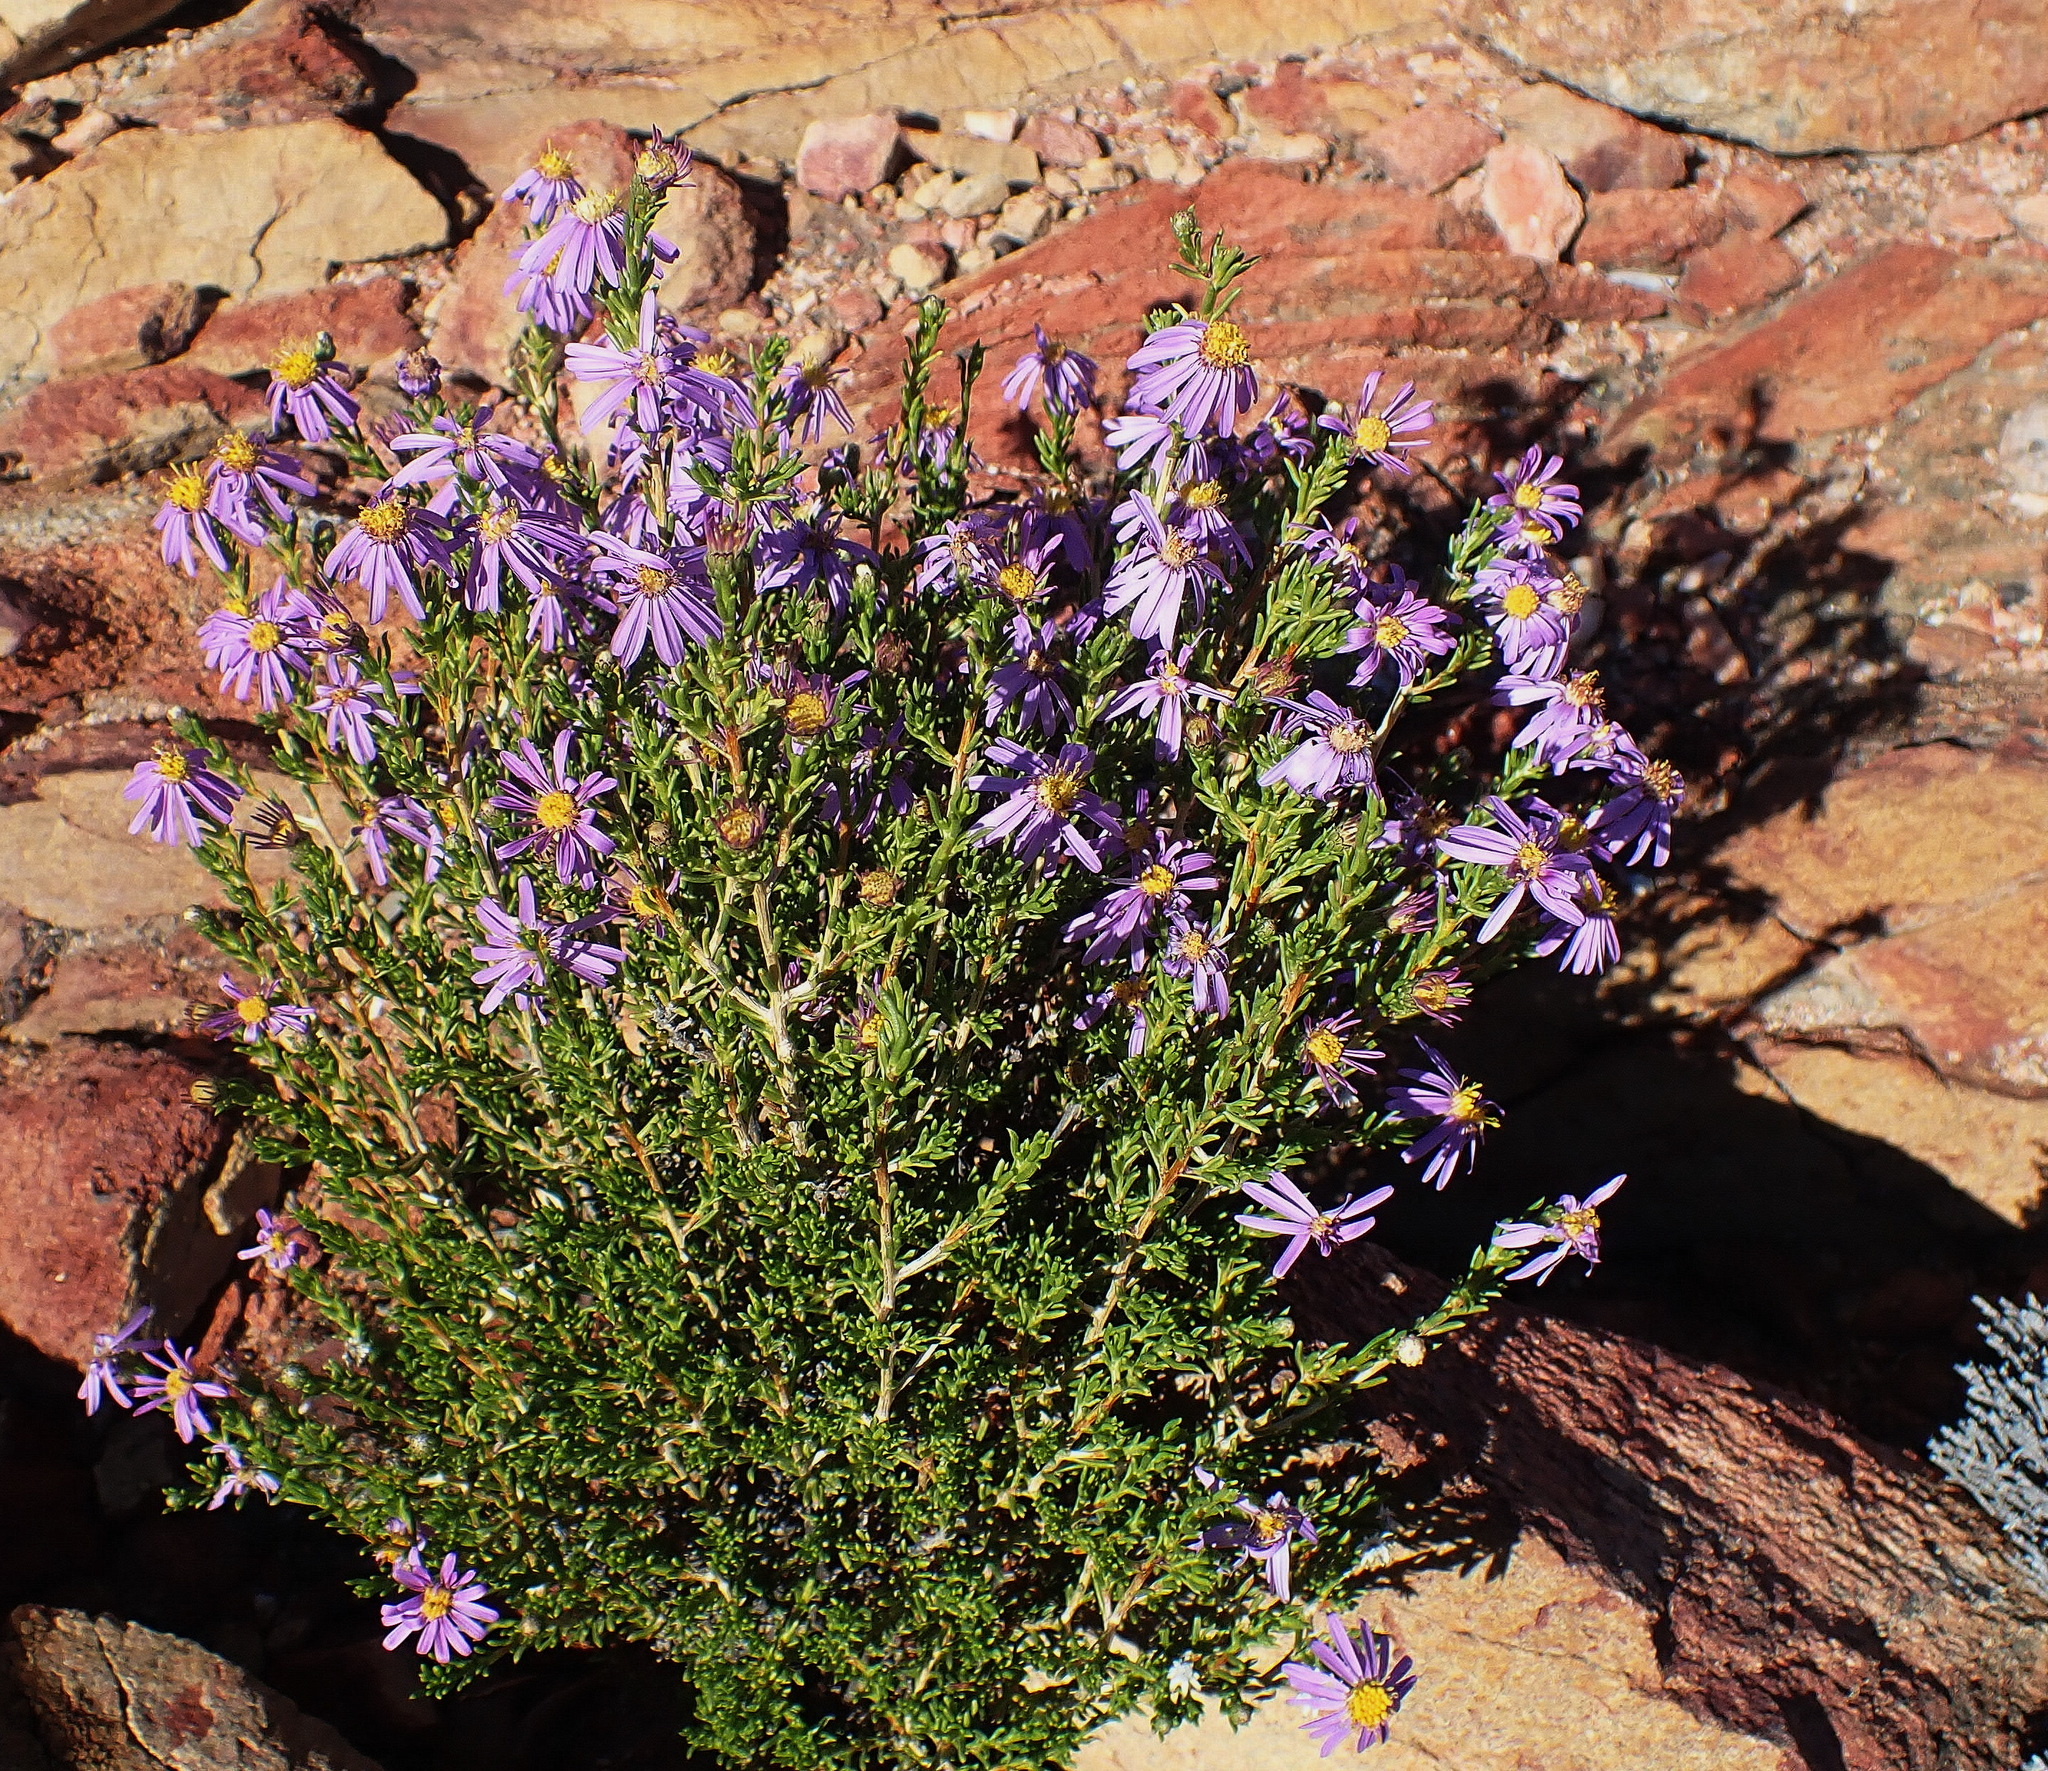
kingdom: Plantae
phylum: Tracheophyta
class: Magnoliopsida
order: Asterales
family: Asteraceae
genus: Felicia
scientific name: Felicia filifolia
